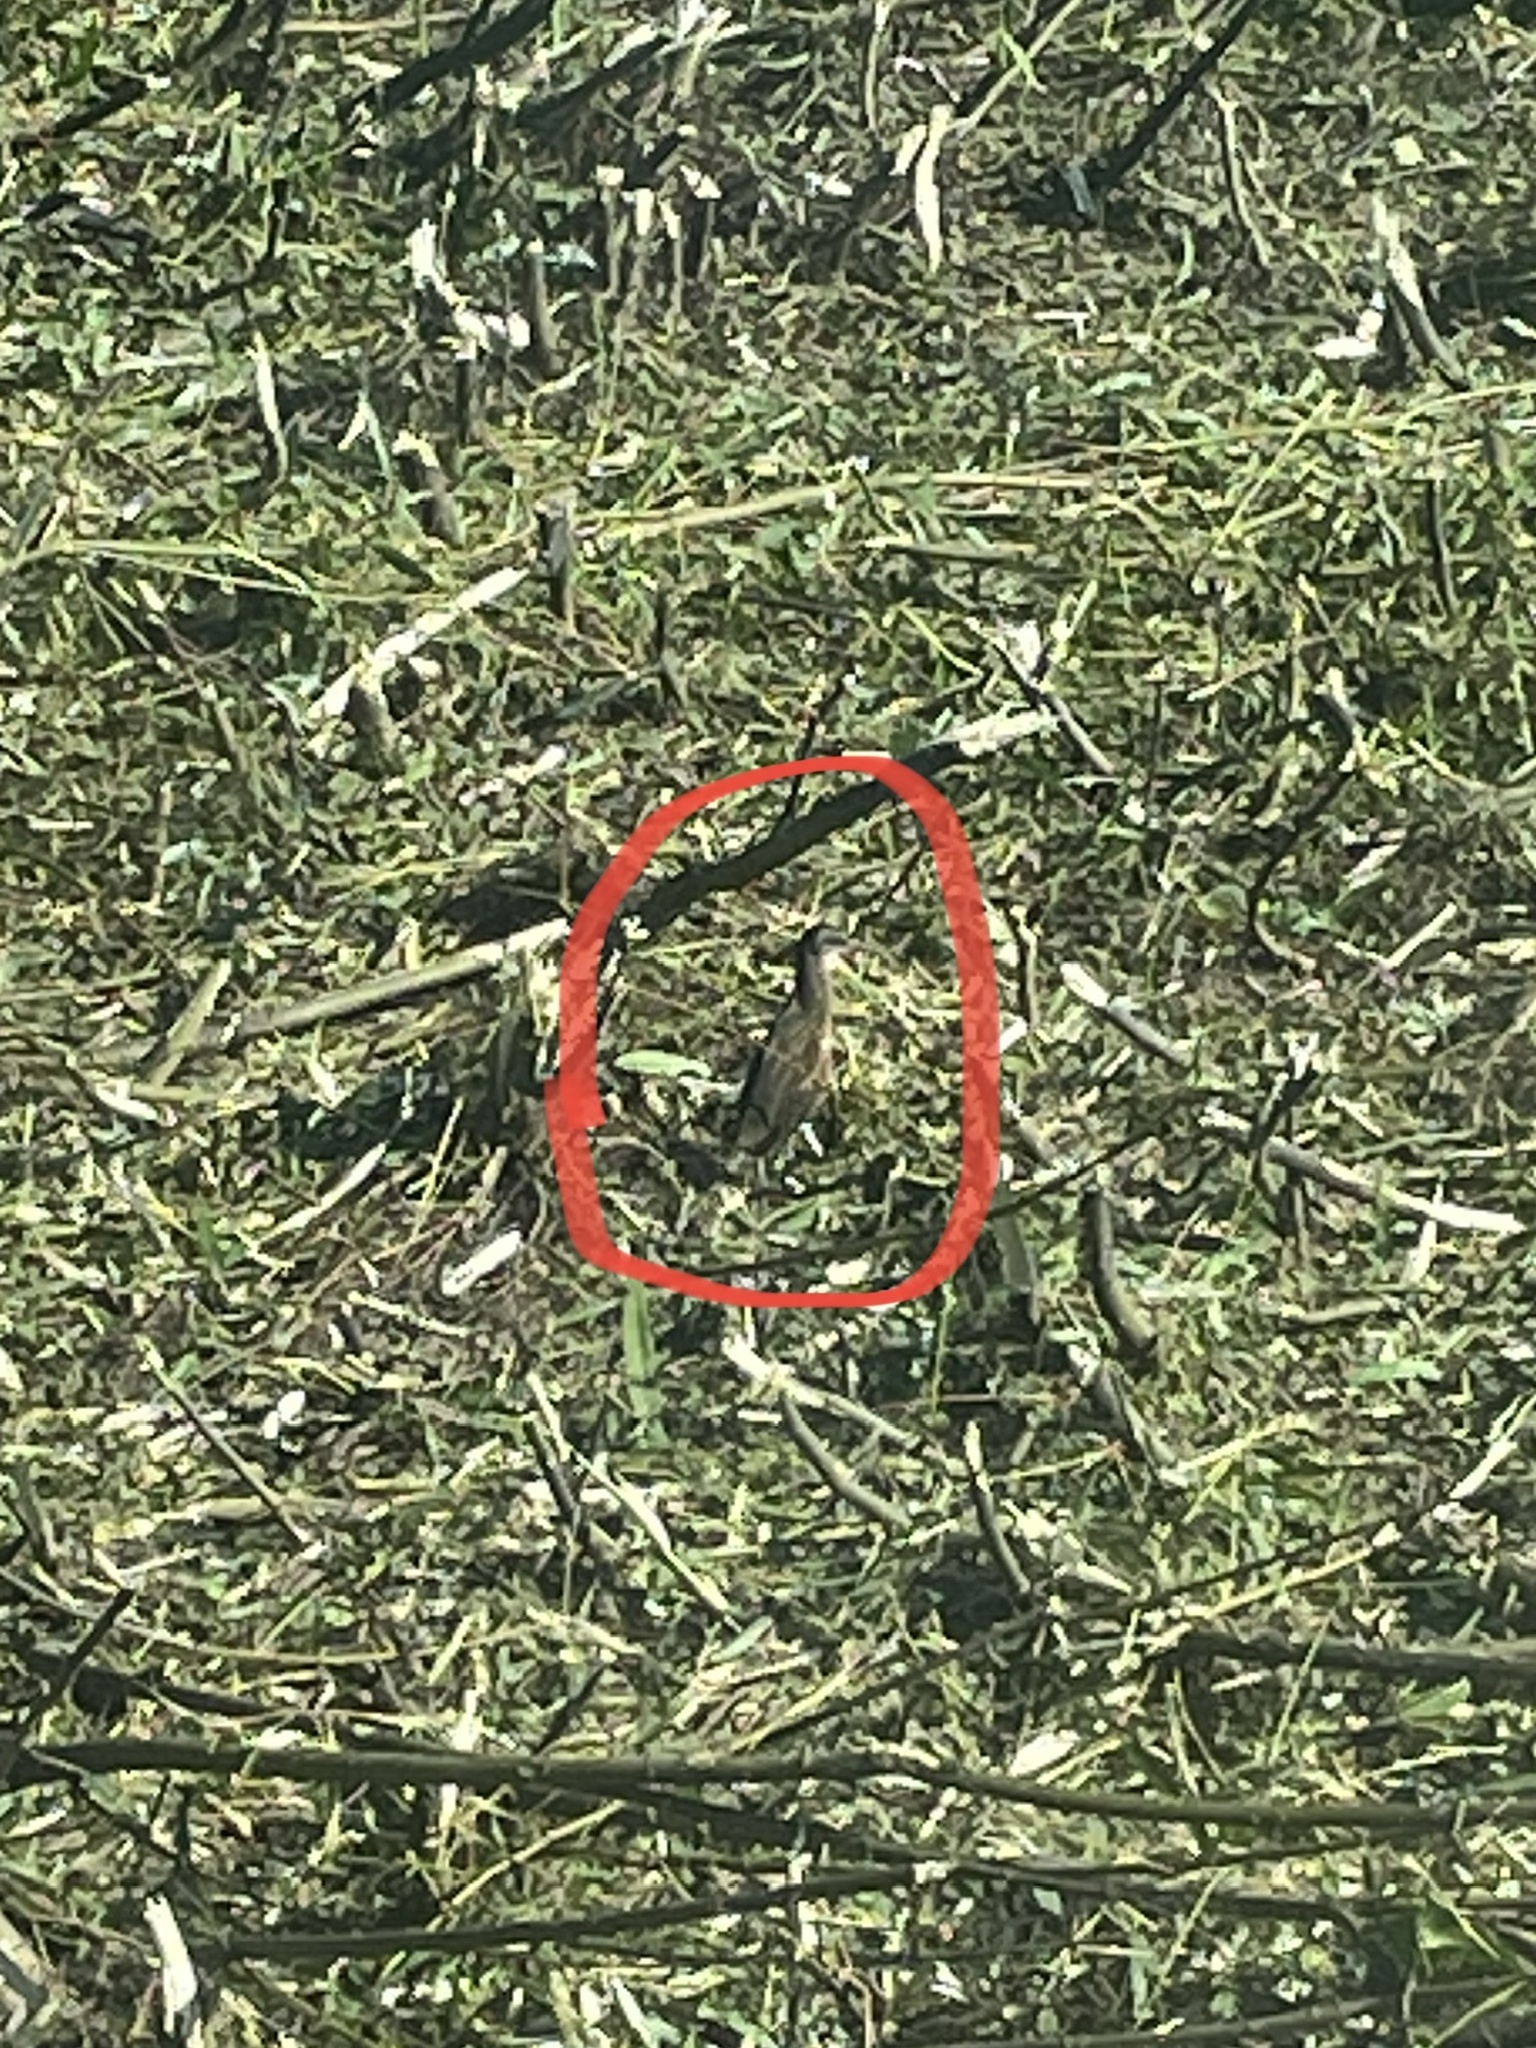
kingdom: Animalia
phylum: Chordata
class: Aves
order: Gruiformes
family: Rallidae
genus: Rallus
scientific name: Rallus limicola
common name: Virginia rail
